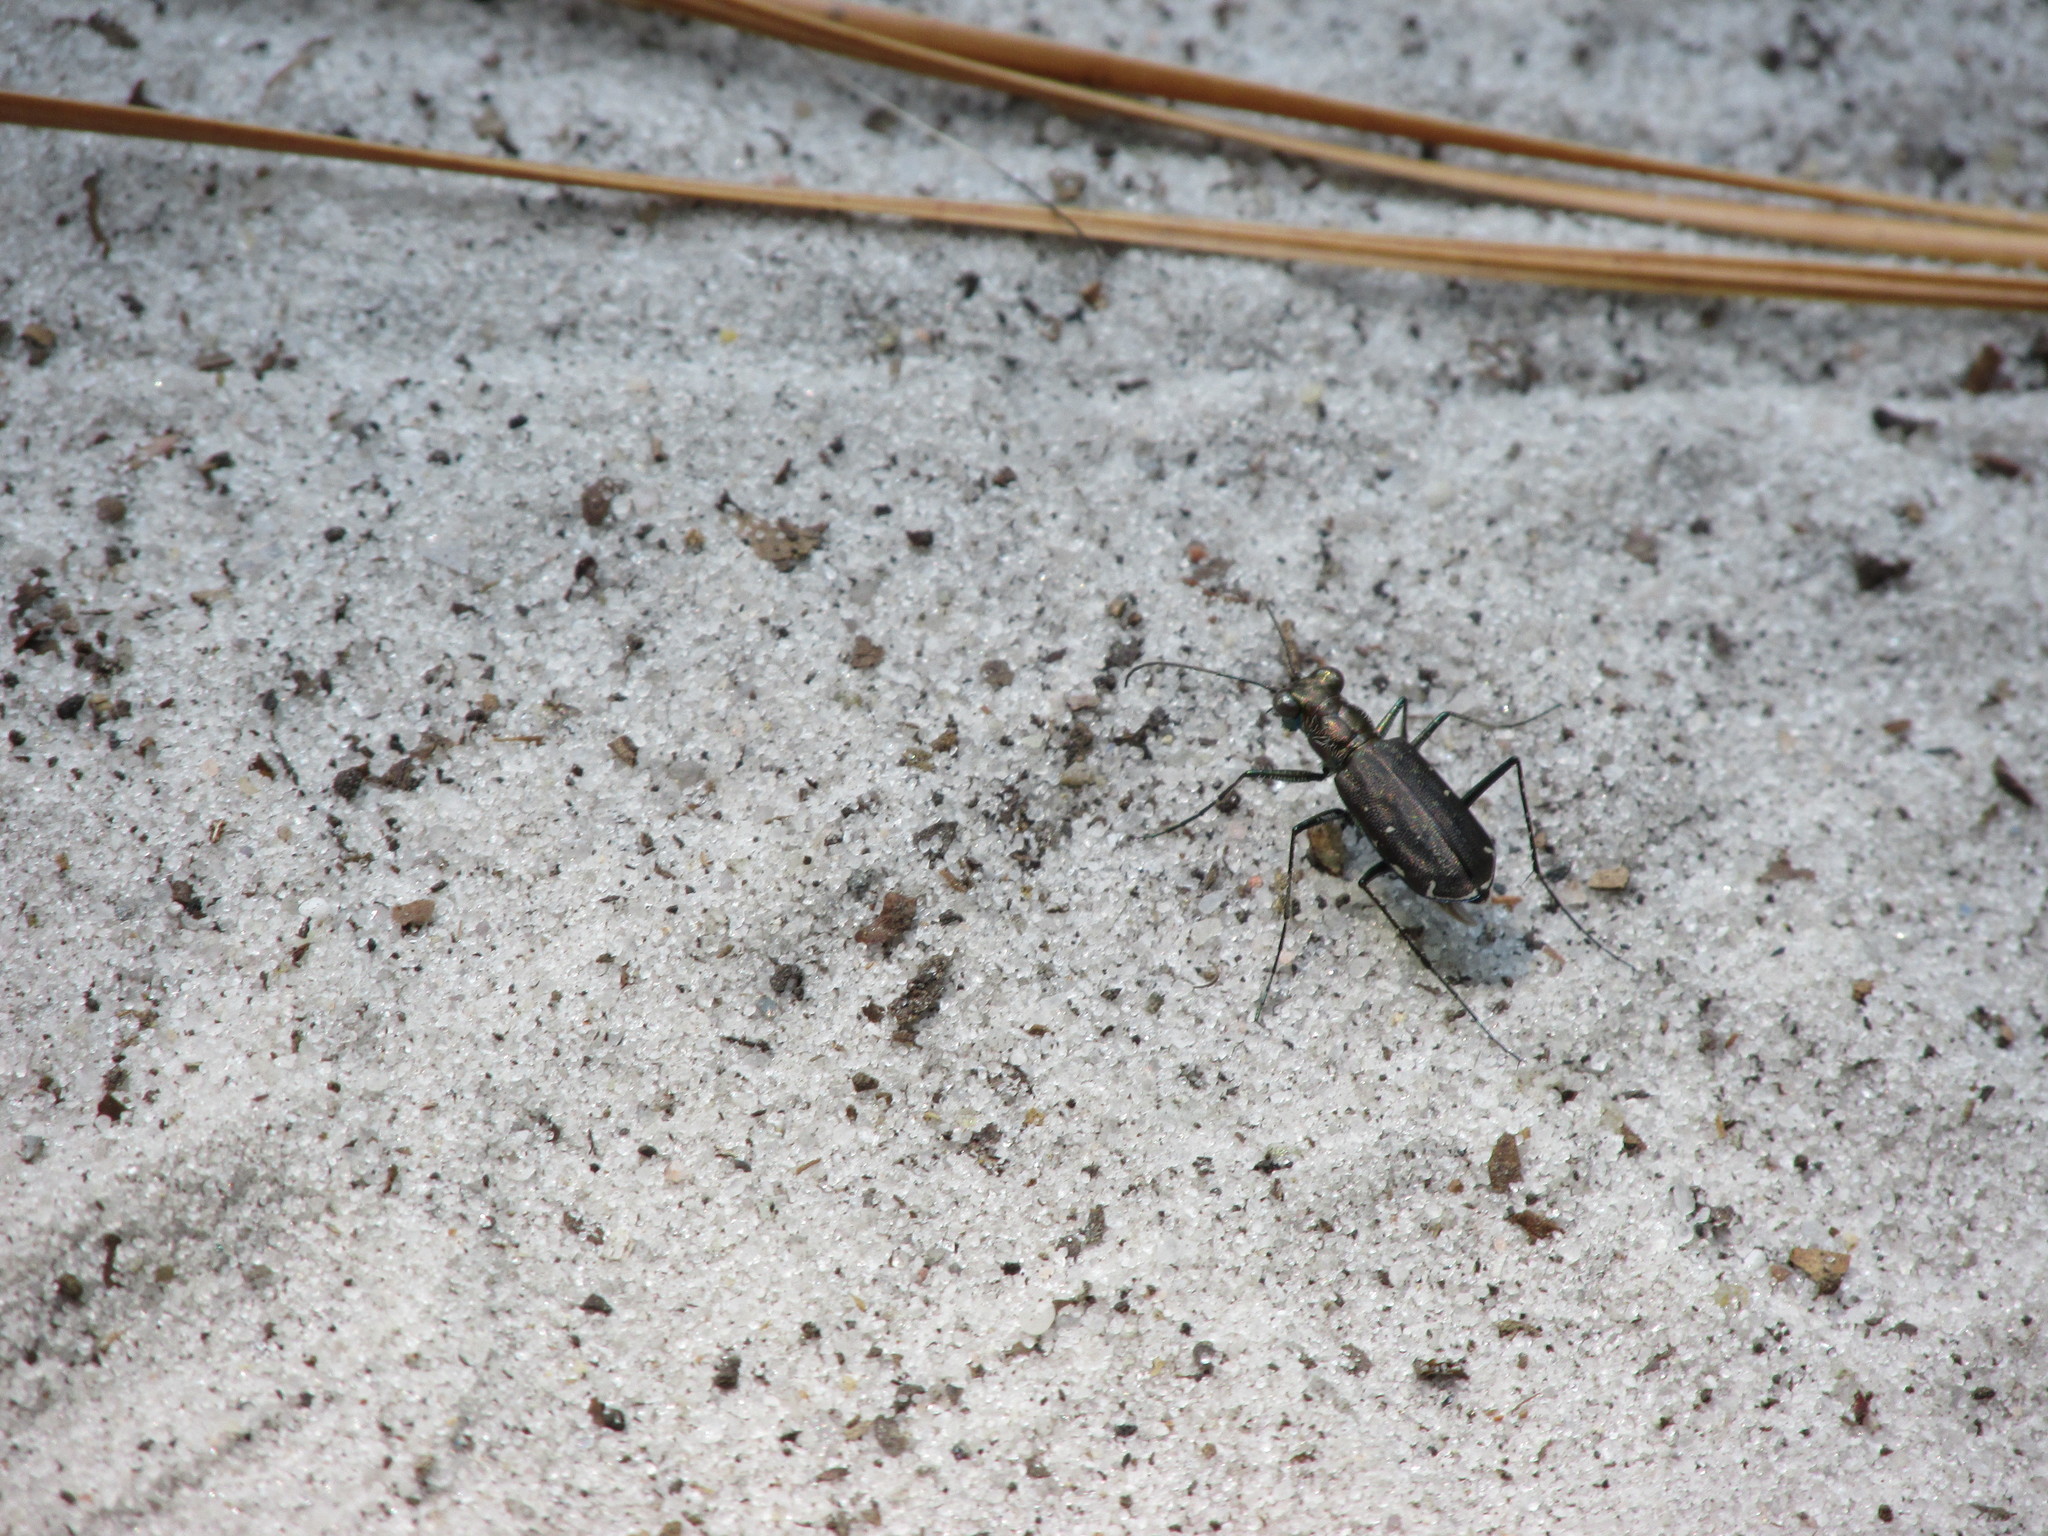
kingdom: Animalia
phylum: Arthropoda
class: Insecta
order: Coleoptera
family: Carabidae
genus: Cicindela
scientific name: Cicindela punctulata
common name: Punctured tiger beetle
